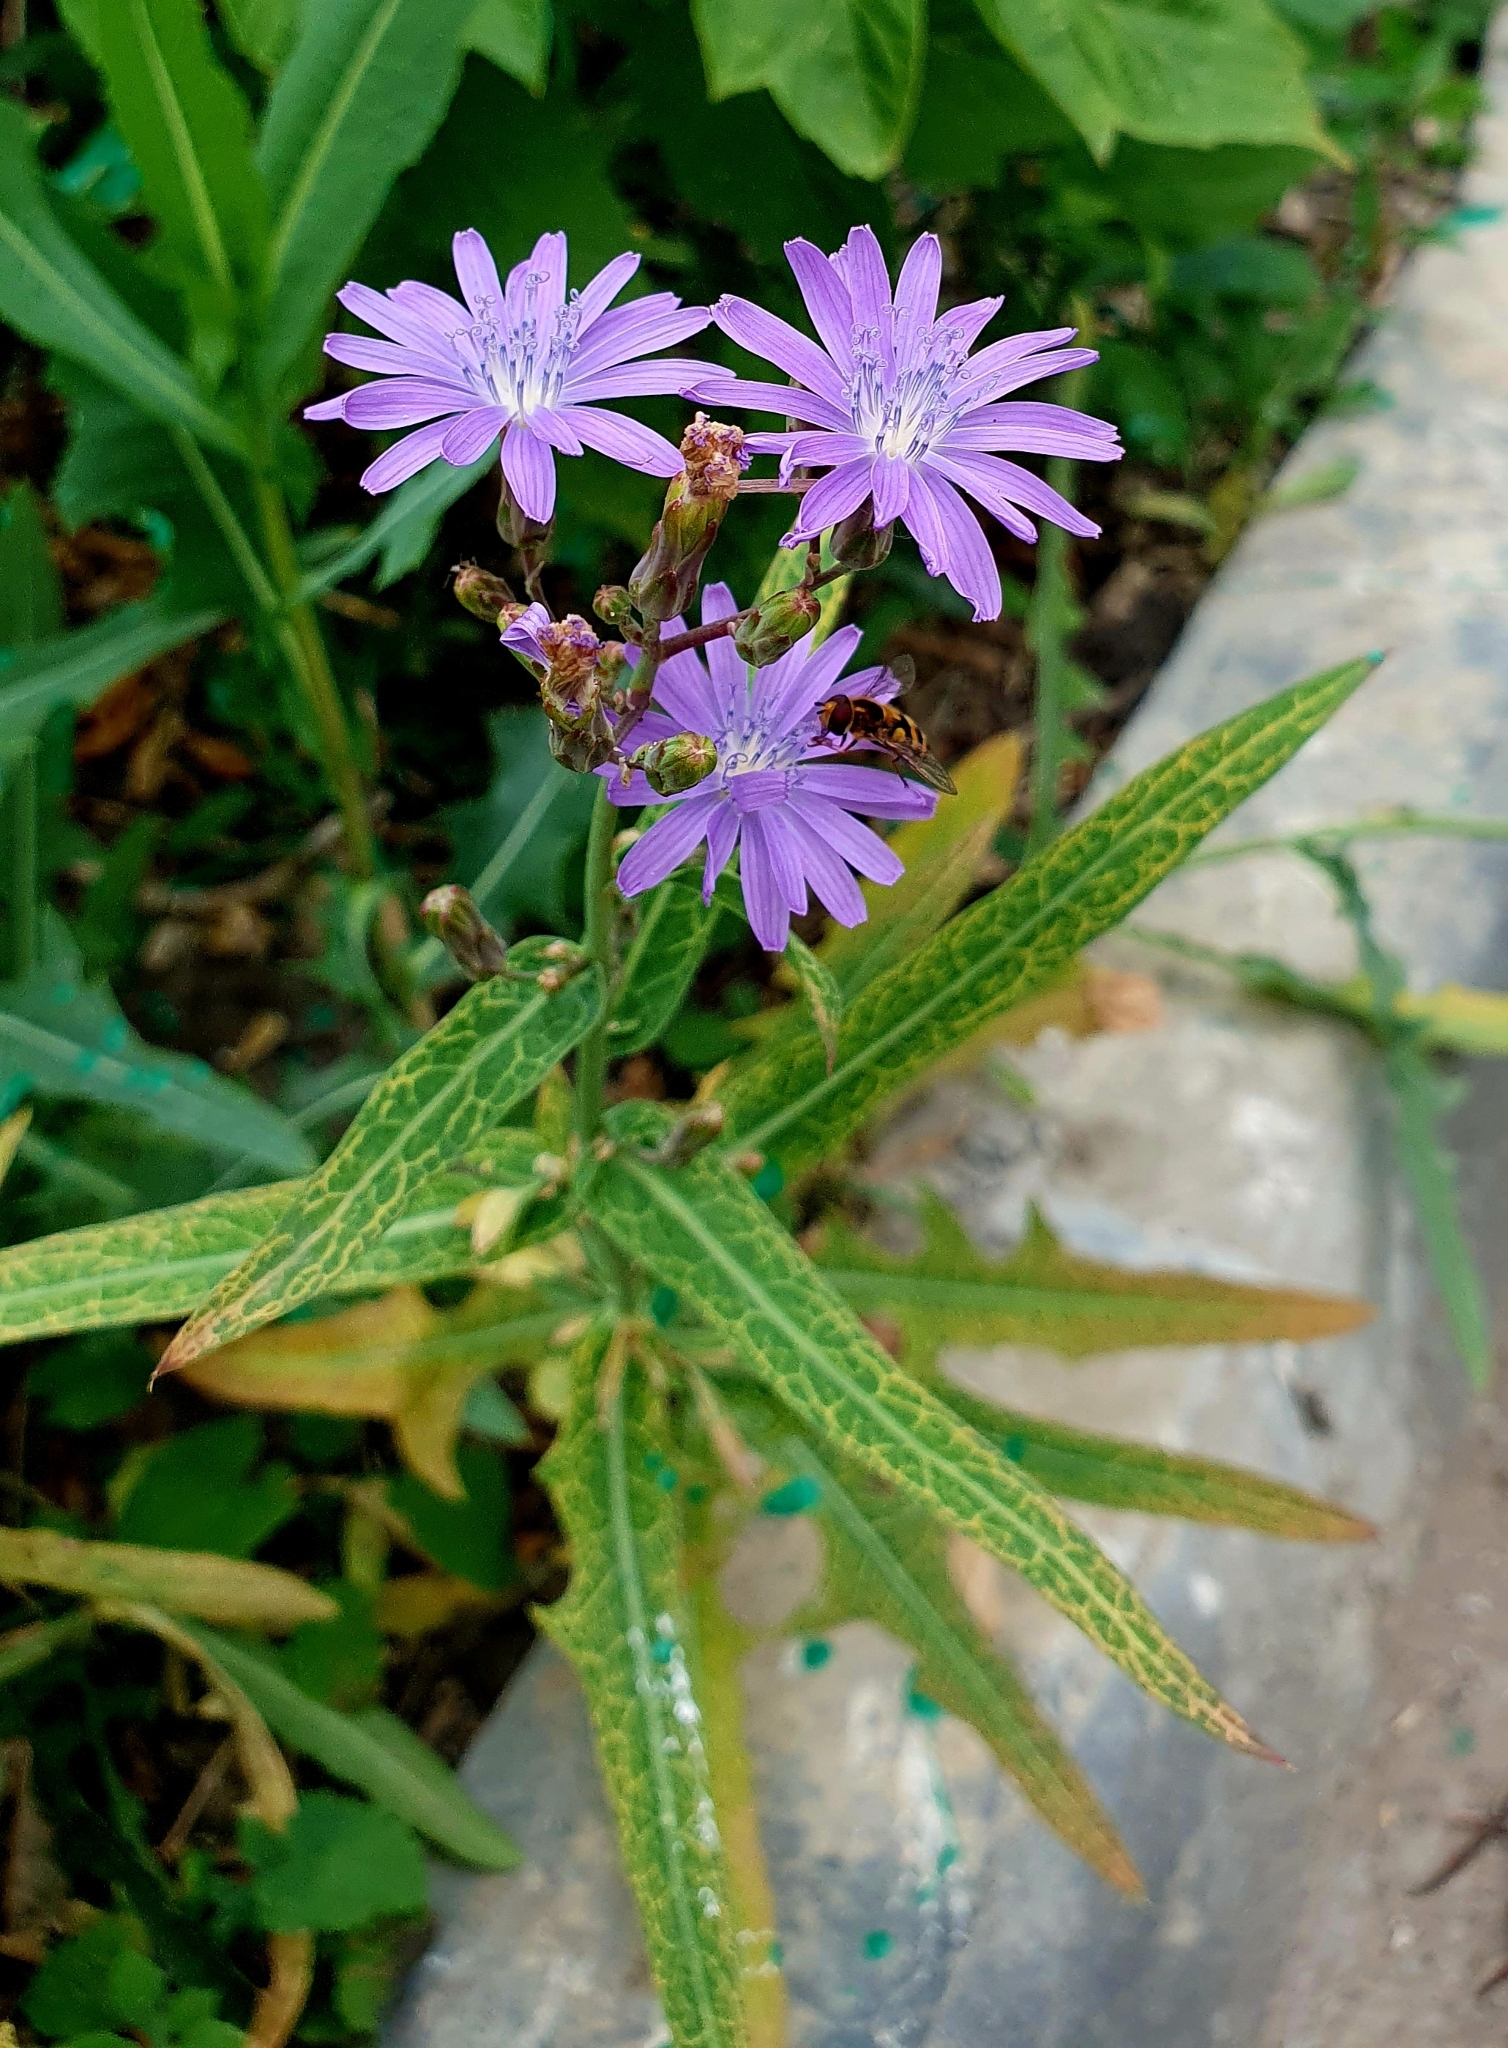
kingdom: Plantae
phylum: Tracheophyta
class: Magnoliopsida
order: Asterales
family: Asteraceae
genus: Lactuca
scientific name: Lactuca tatarica
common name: Blue lettuce
